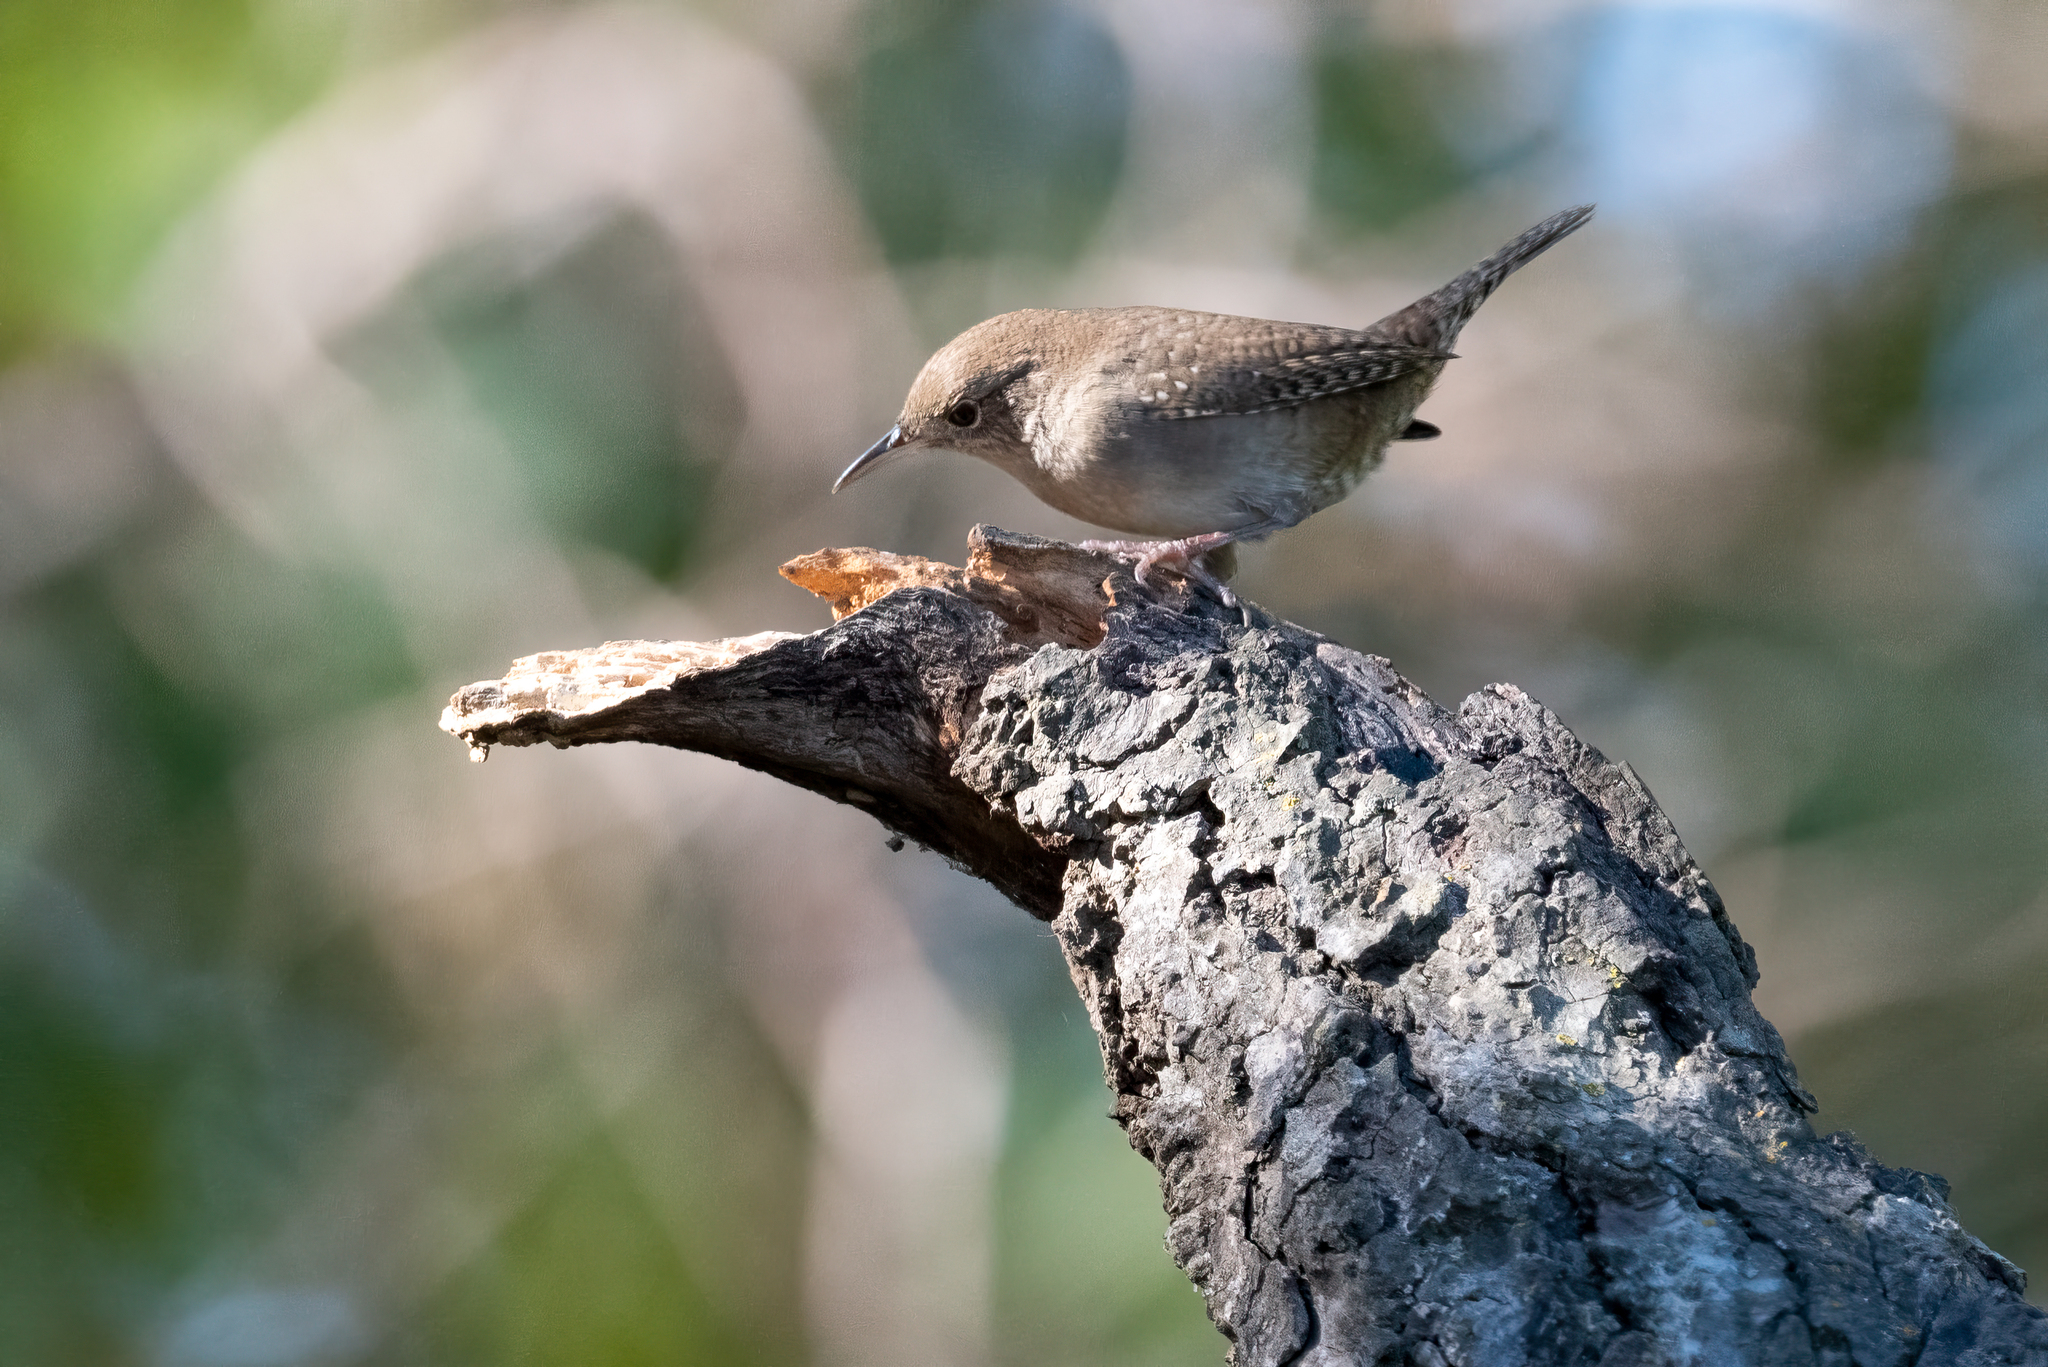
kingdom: Animalia
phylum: Chordata
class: Aves
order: Passeriformes
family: Troglodytidae
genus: Troglodytes
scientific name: Troglodytes aedon
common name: House wren
